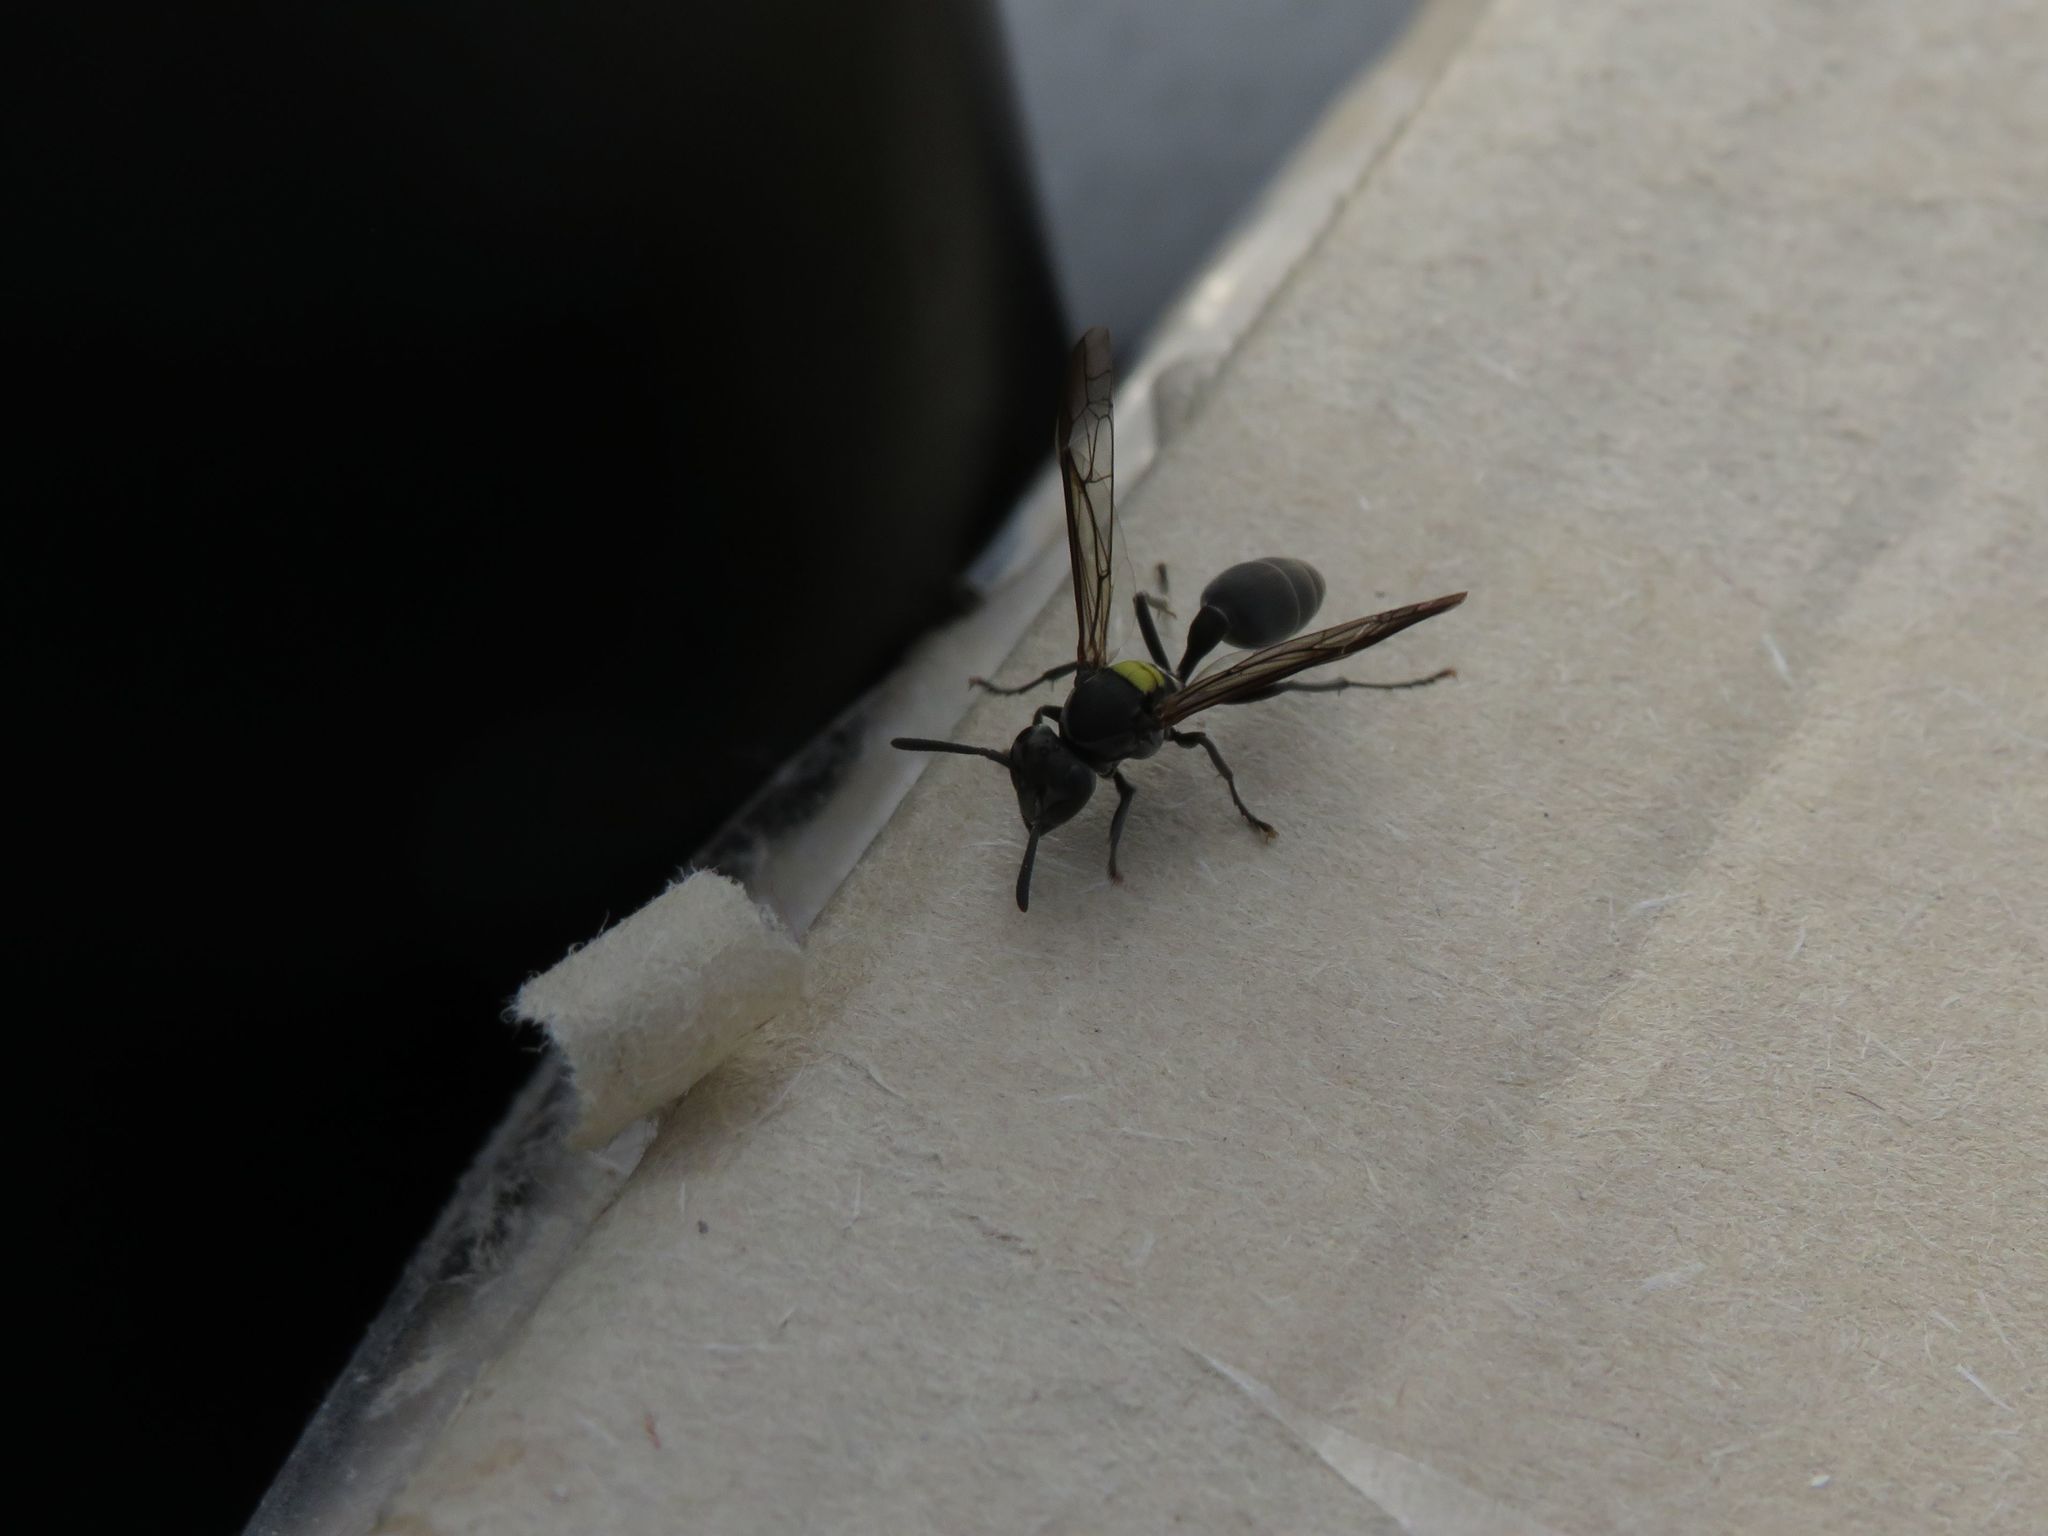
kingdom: Animalia
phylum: Arthropoda
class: Insecta
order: Hymenoptera
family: Eumenidae
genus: Polybia
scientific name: Polybia scutellaris
